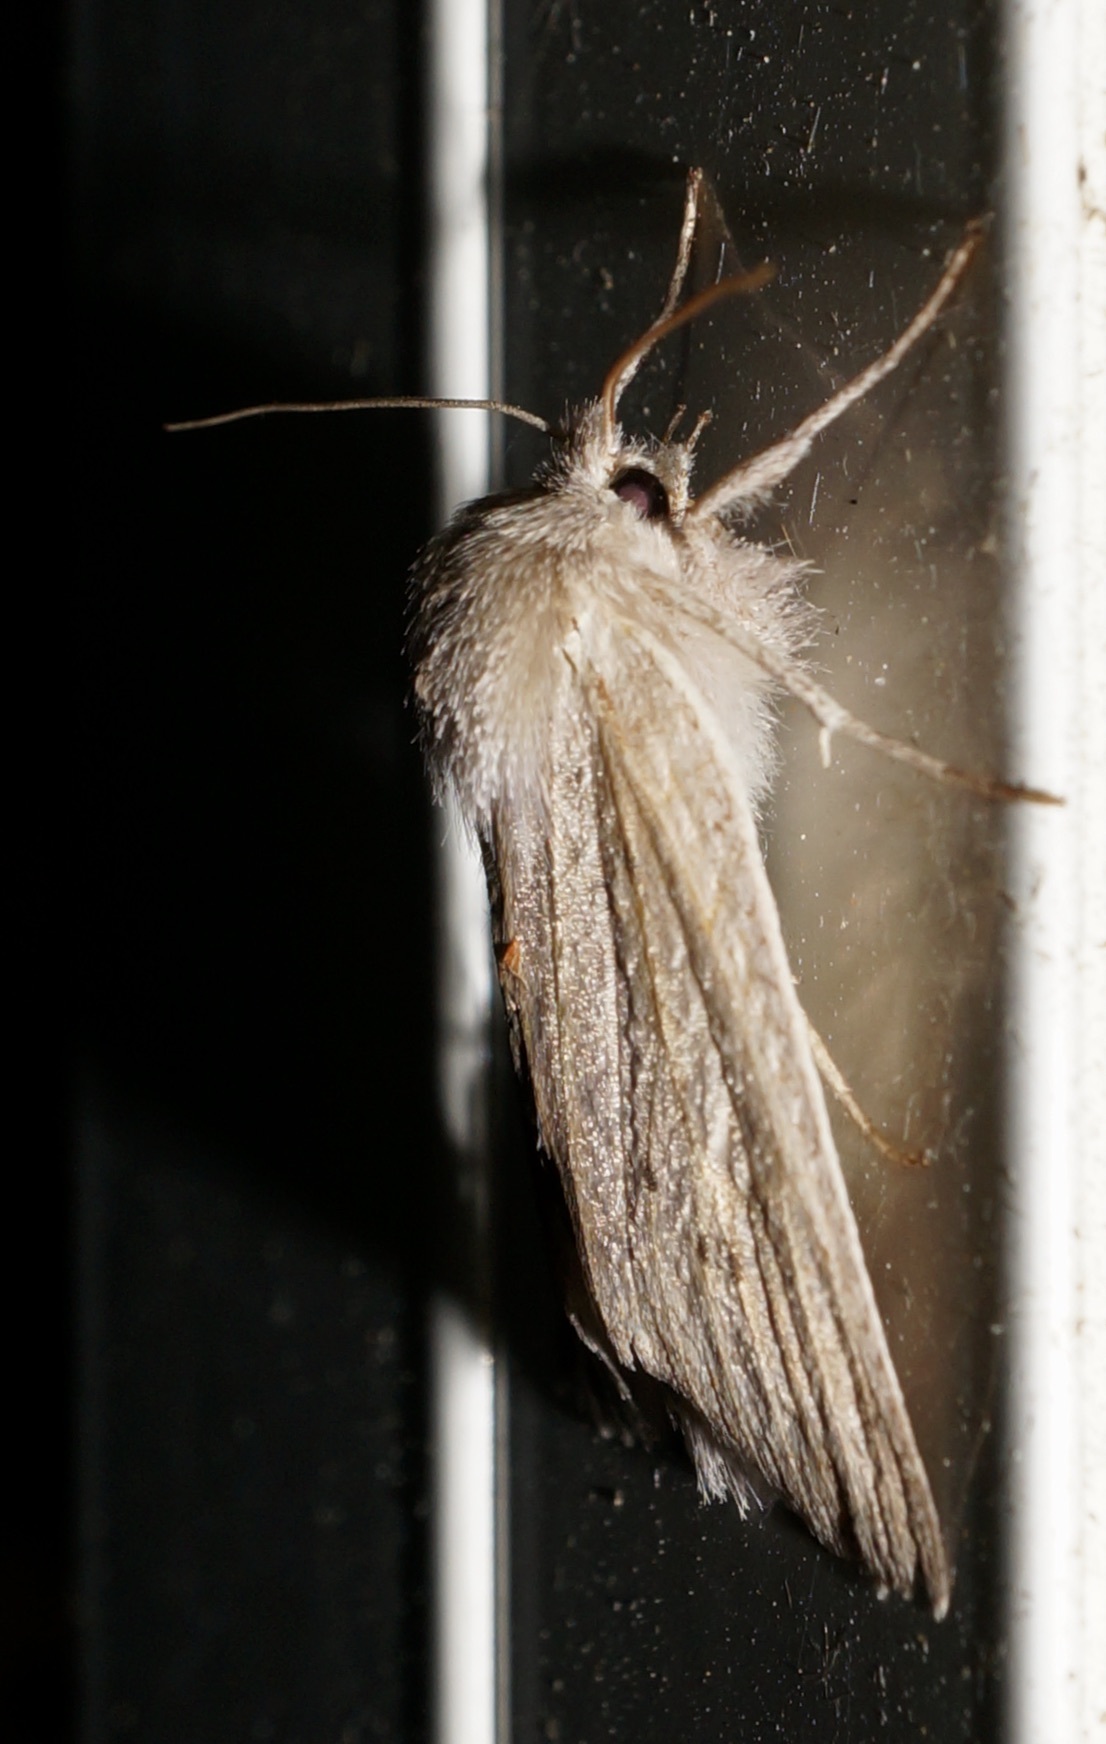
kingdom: Animalia
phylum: Arthropoda
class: Insecta
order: Lepidoptera
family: Geometridae
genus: Declana
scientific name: Declana leptomera
